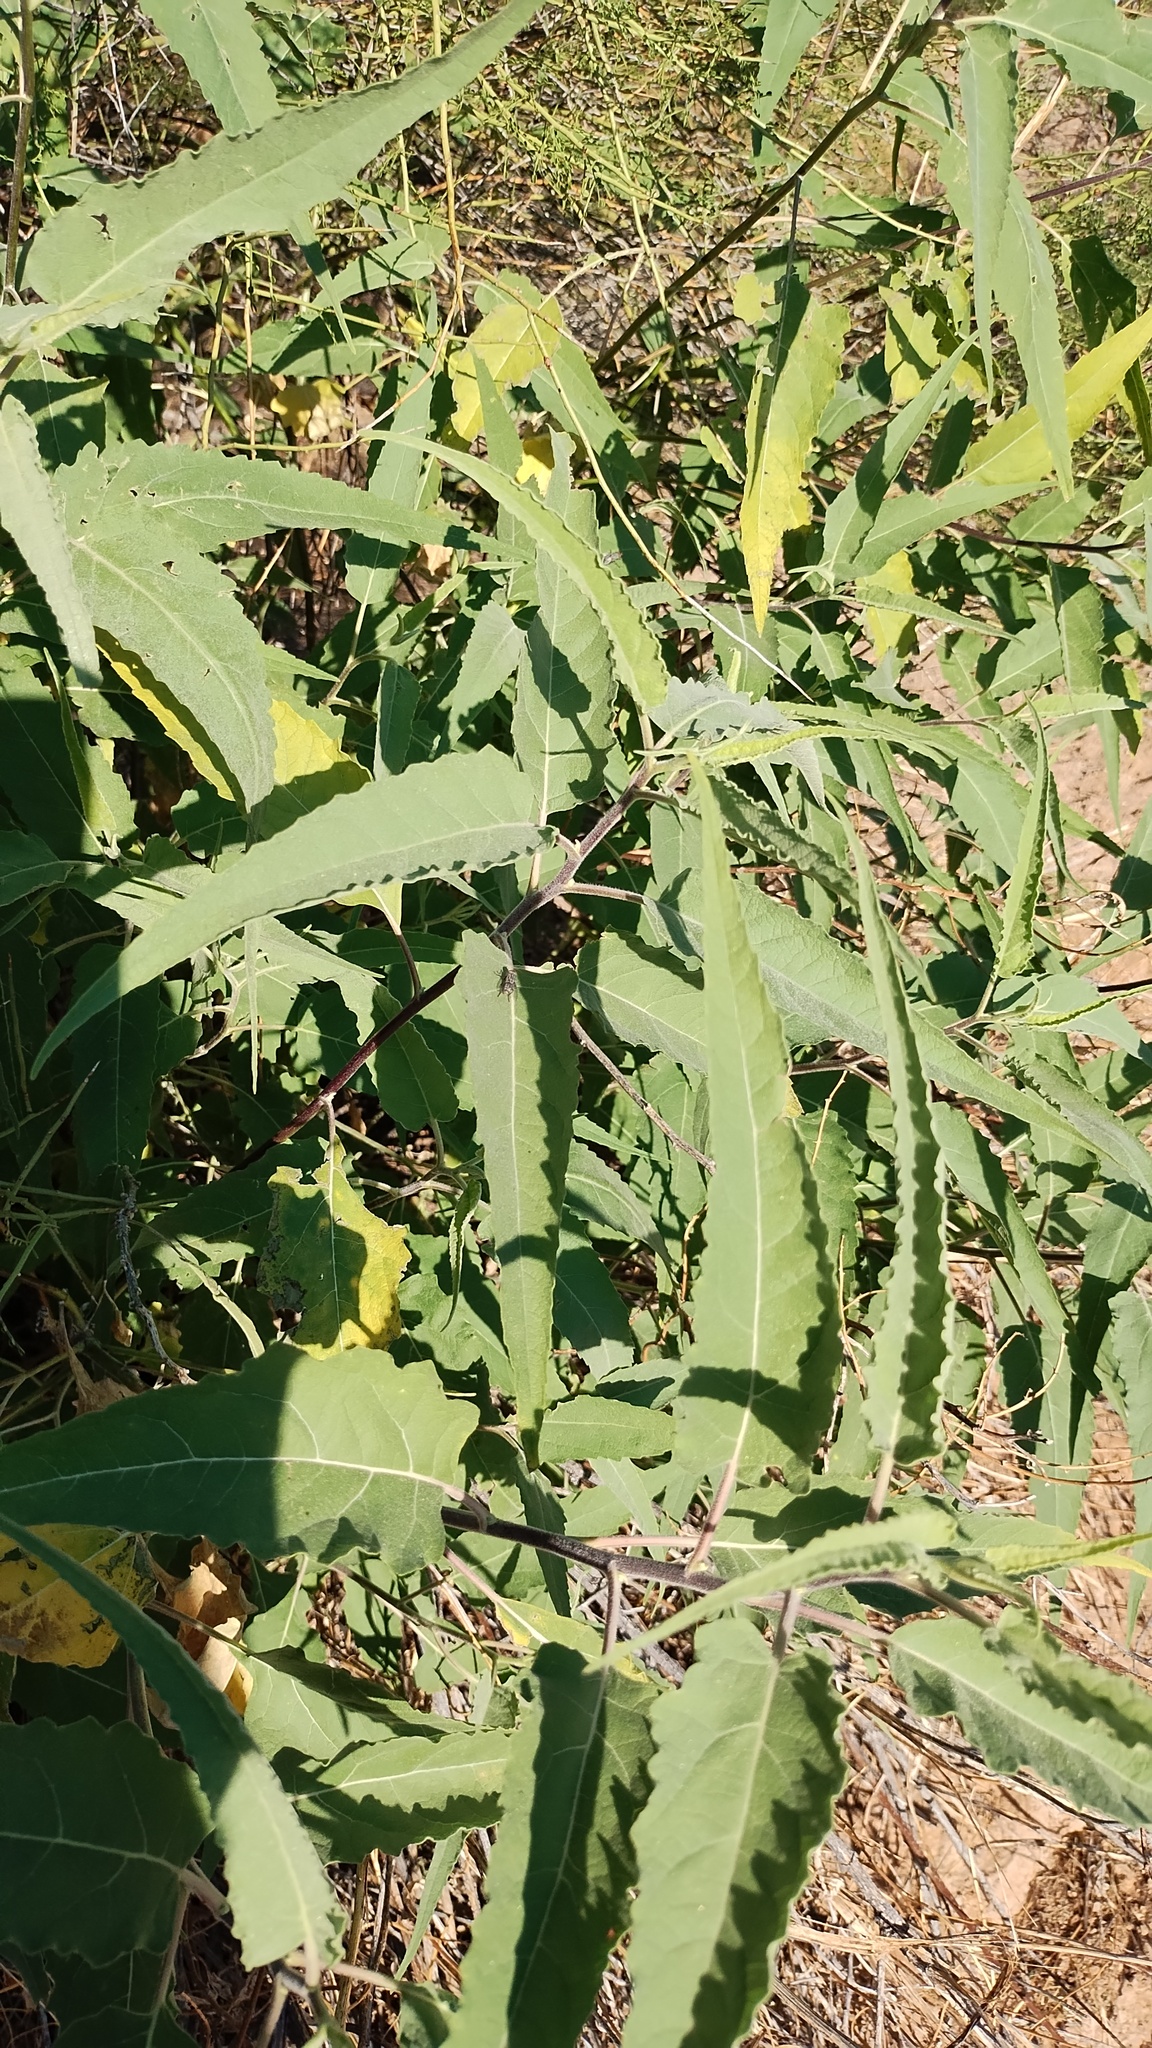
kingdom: Plantae
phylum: Tracheophyta
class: Magnoliopsida
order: Asterales
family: Asteraceae
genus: Ambrosia
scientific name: Ambrosia ambrosioides
